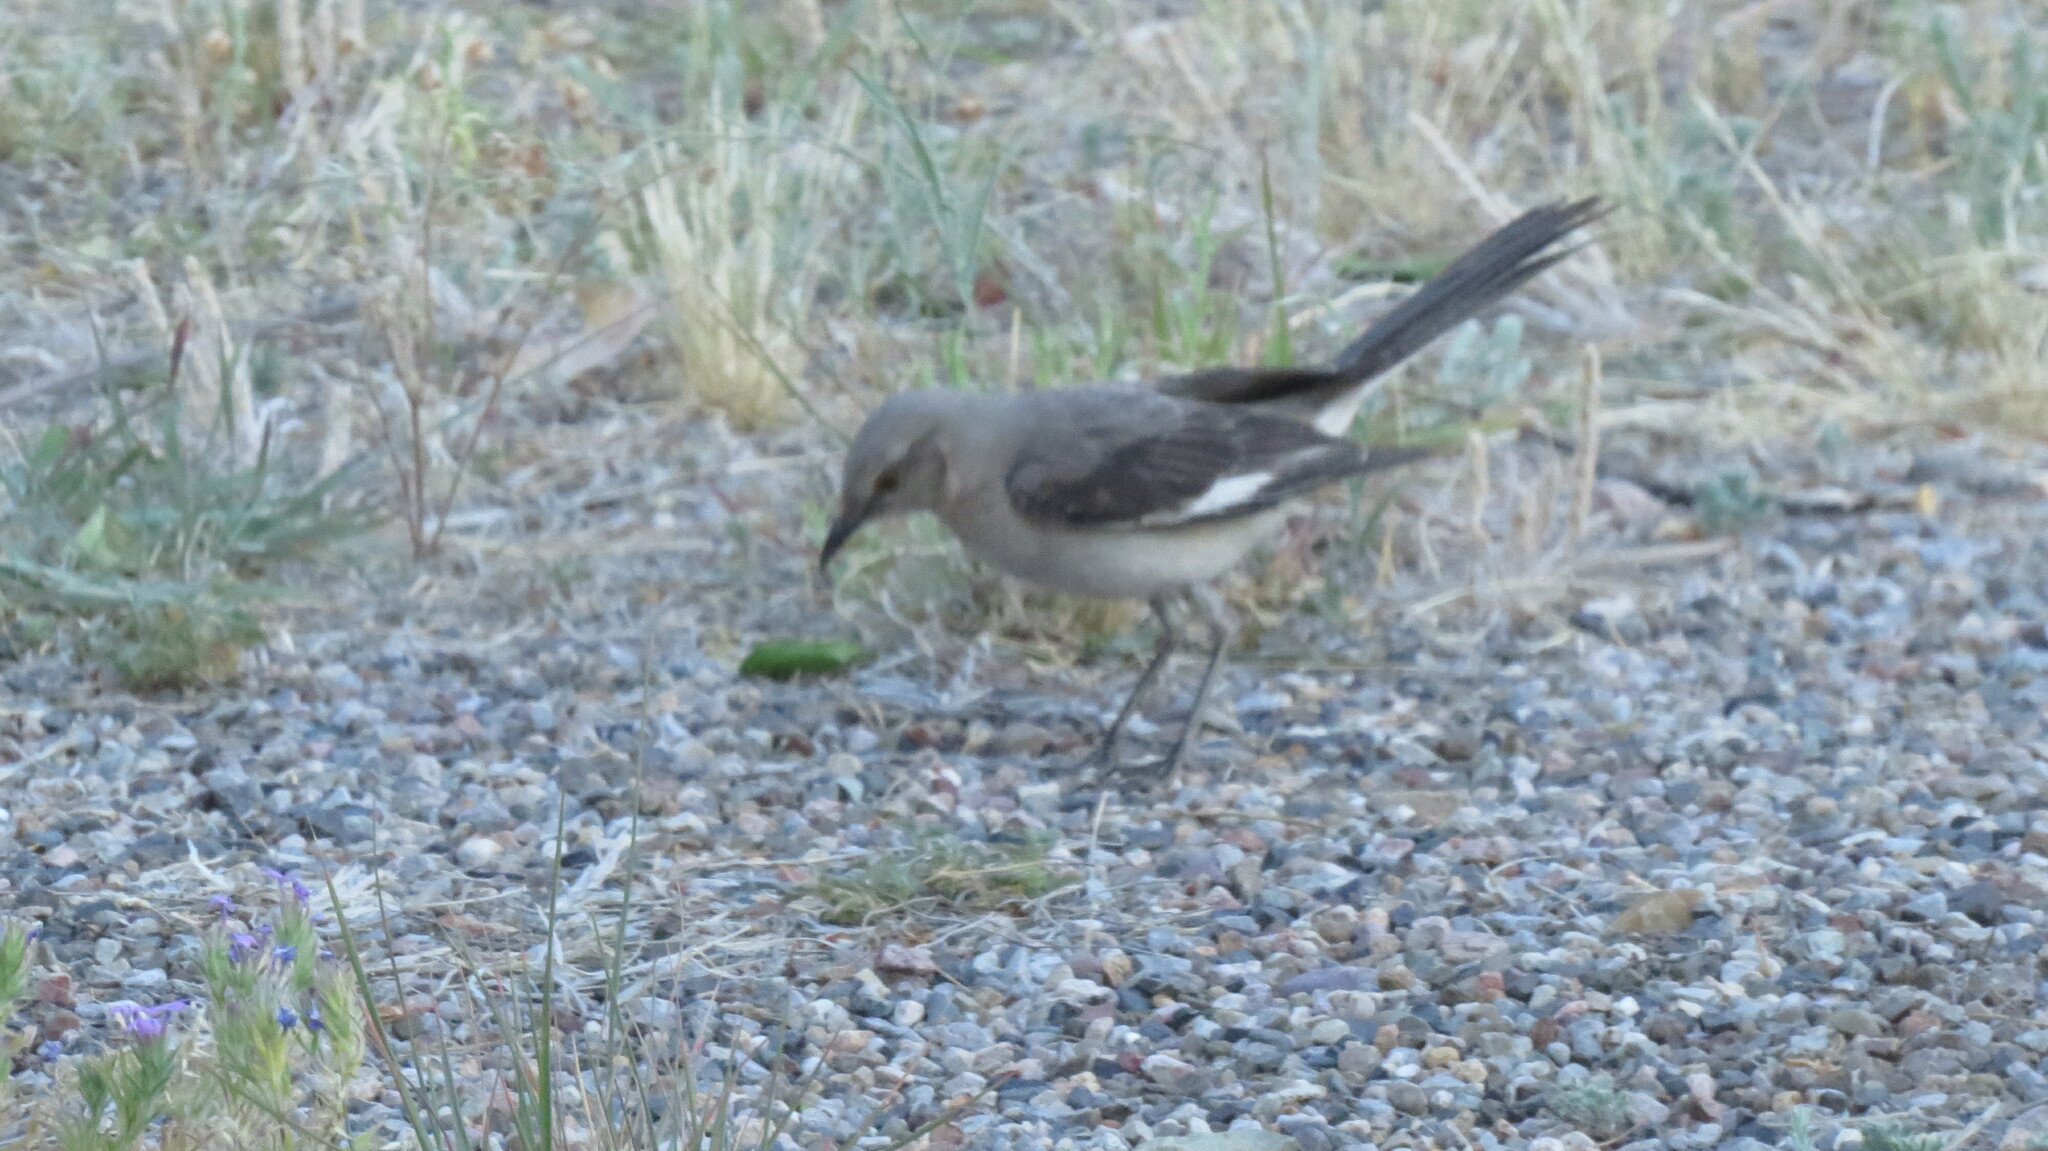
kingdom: Animalia
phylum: Chordata
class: Aves
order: Passeriformes
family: Mimidae
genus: Mimus
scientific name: Mimus polyglottos
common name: Northern mockingbird
